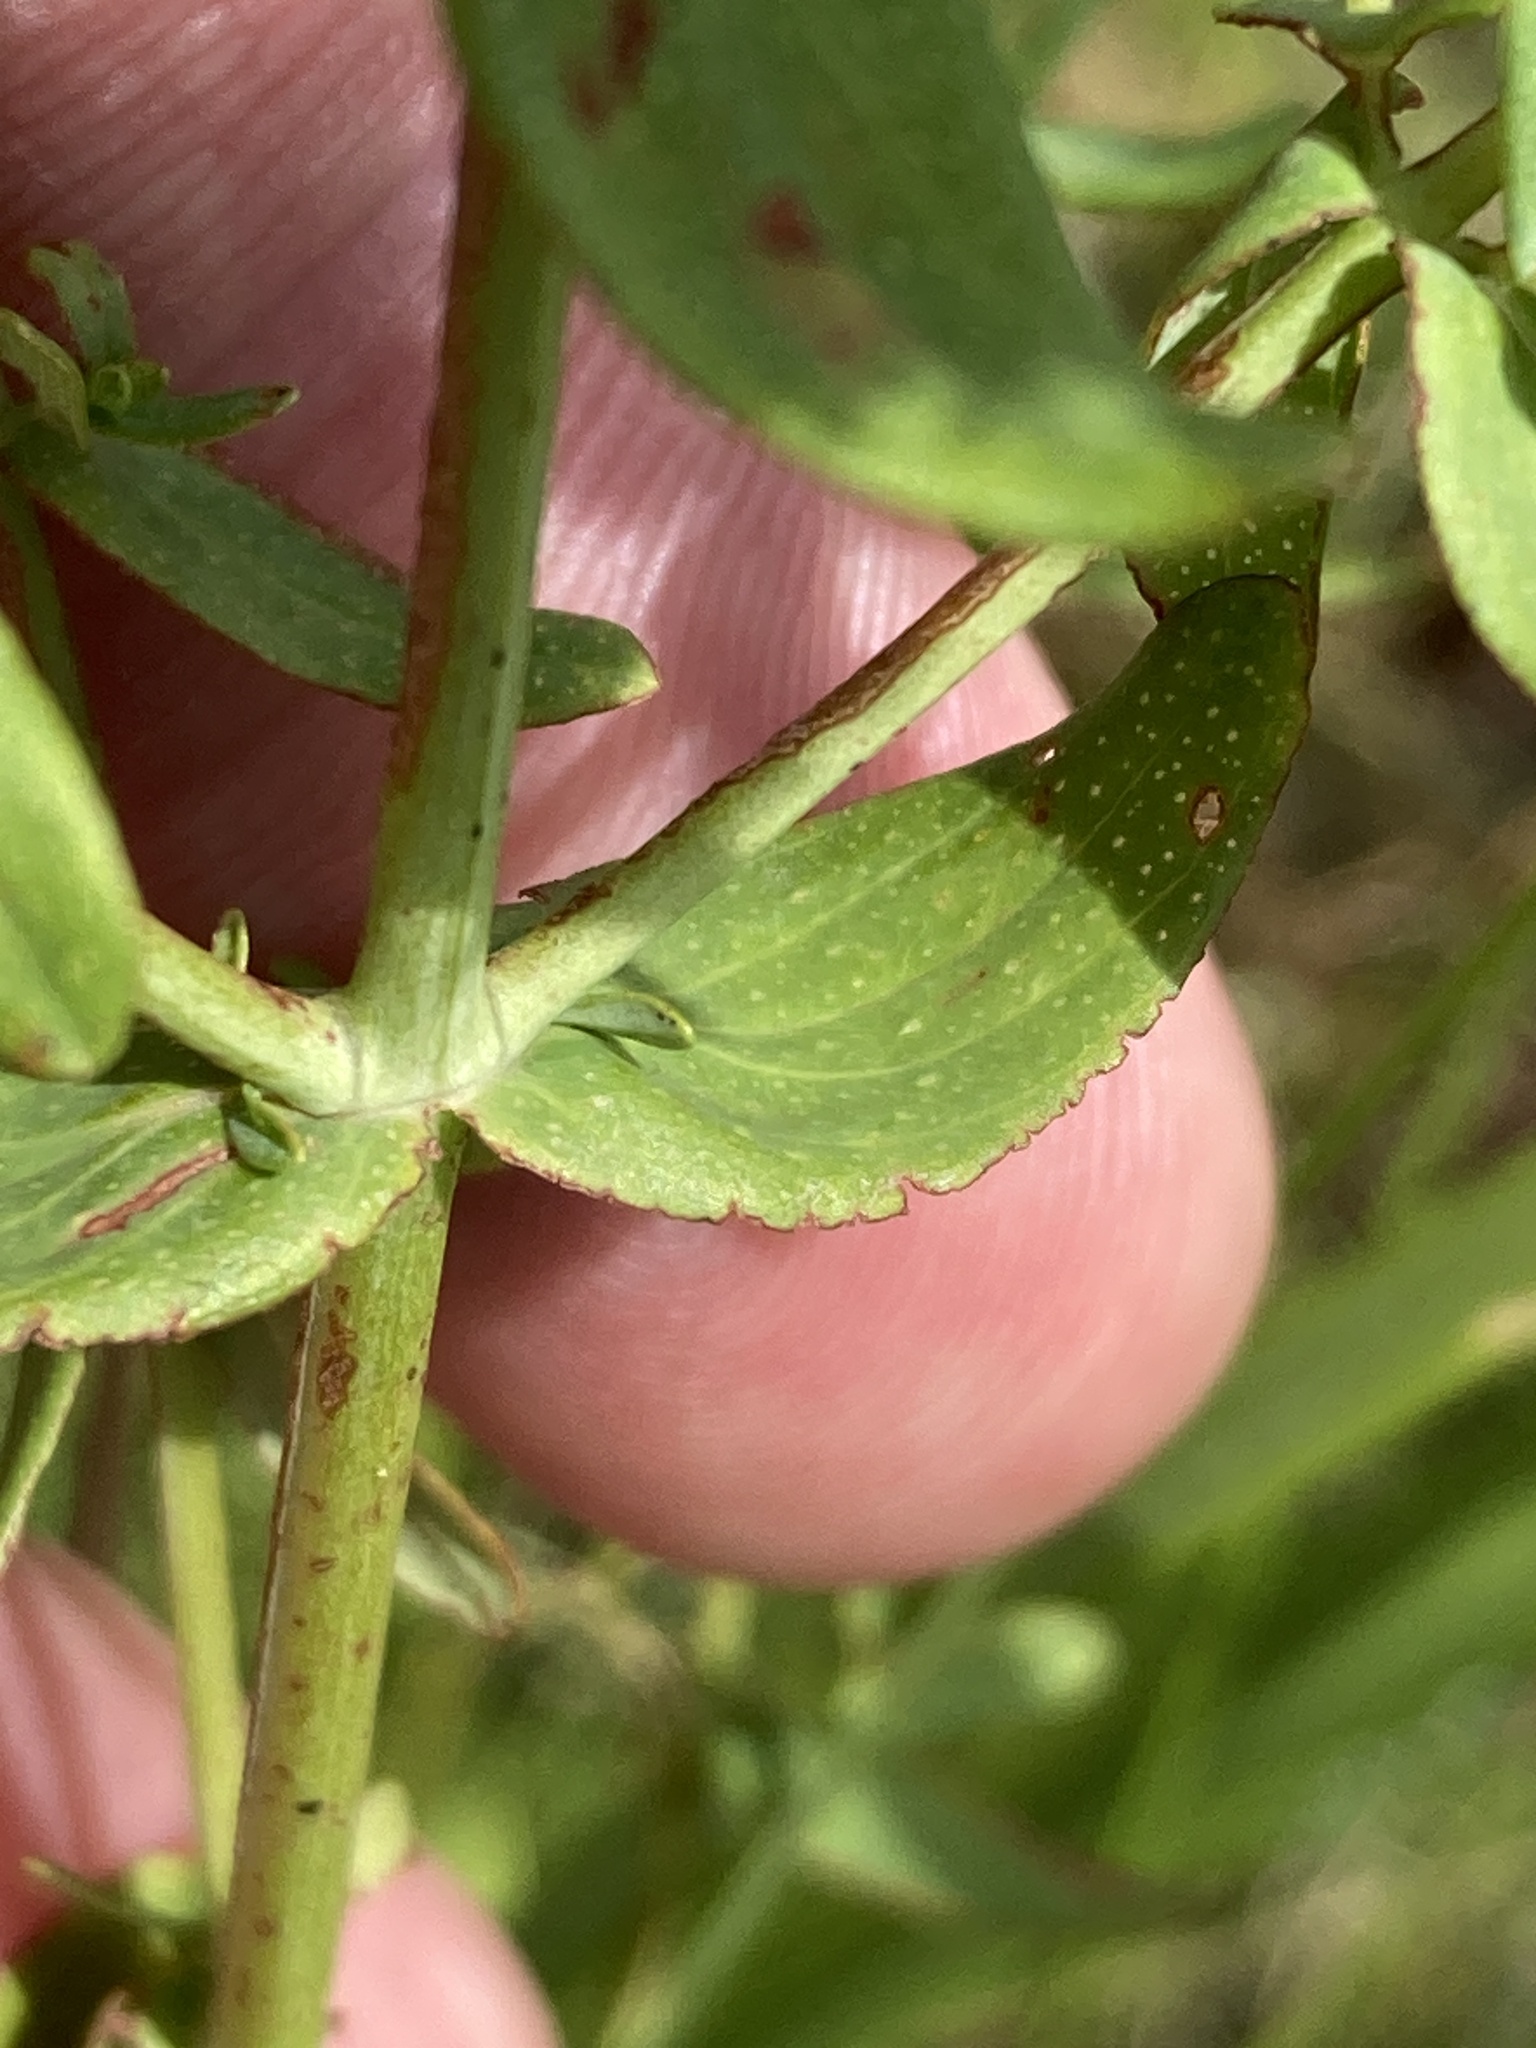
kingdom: Plantae
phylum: Tracheophyta
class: Magnoliopsida
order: Malpighiales
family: Hypericaceae
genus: Hypericum
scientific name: Hypericum perforatum
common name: Common st. johnswort
